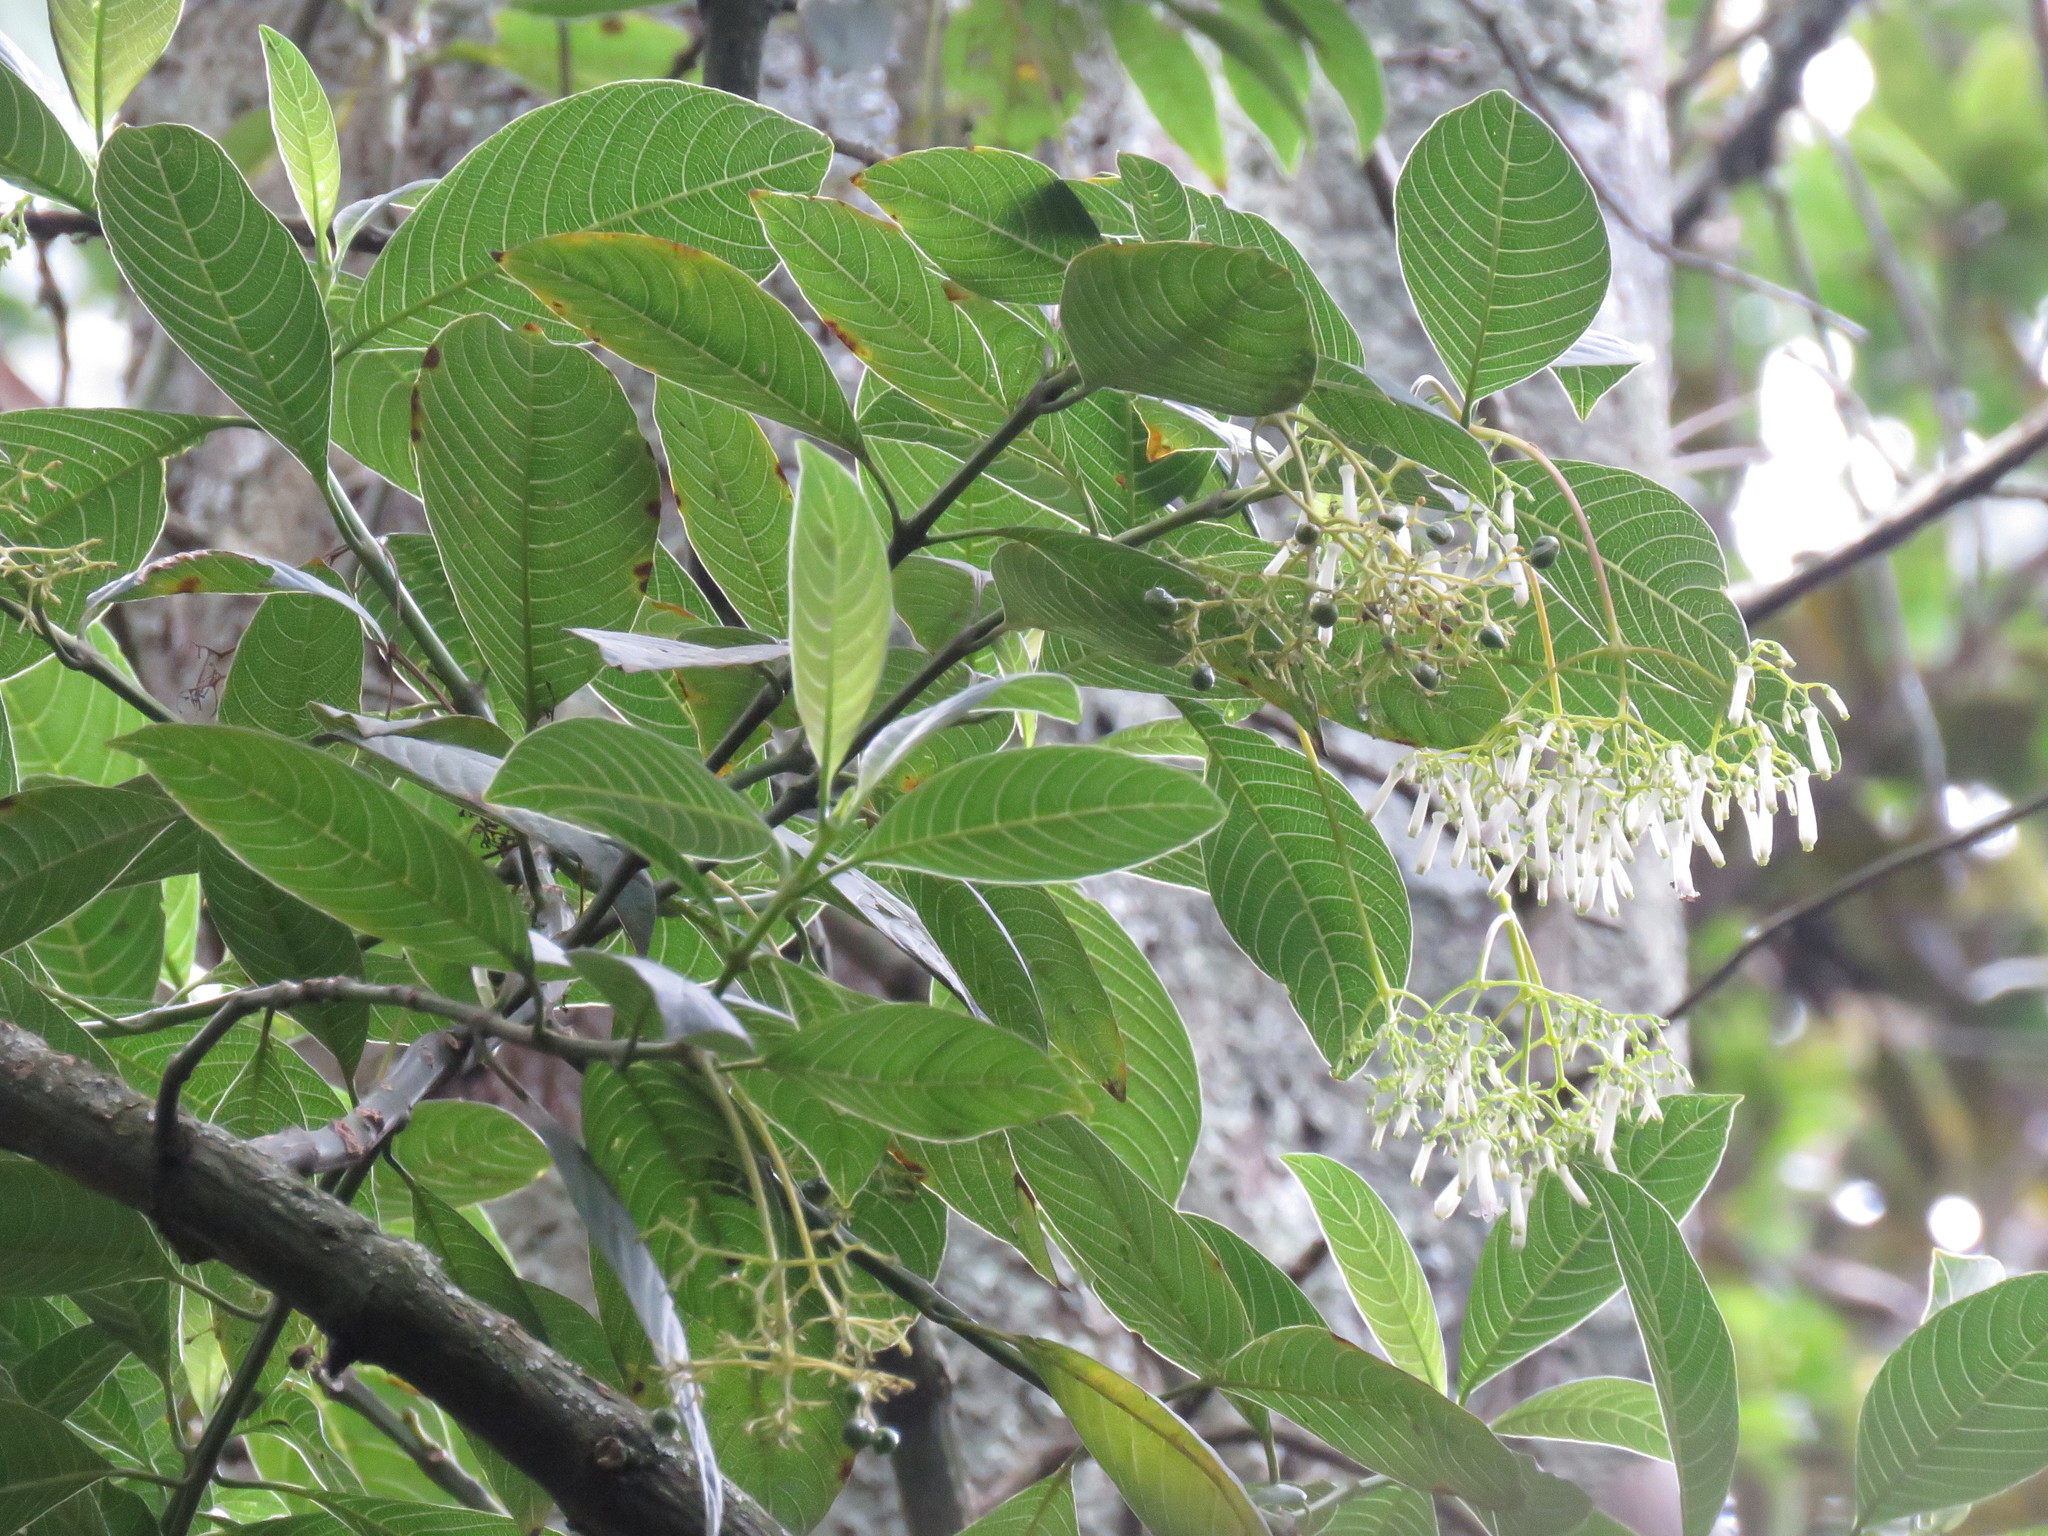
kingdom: Plantae
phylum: Tracheophyta
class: Magnoliopsida
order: Gentianales
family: Rubiaceae
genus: Palicourea
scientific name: Palicourea lineariflora
